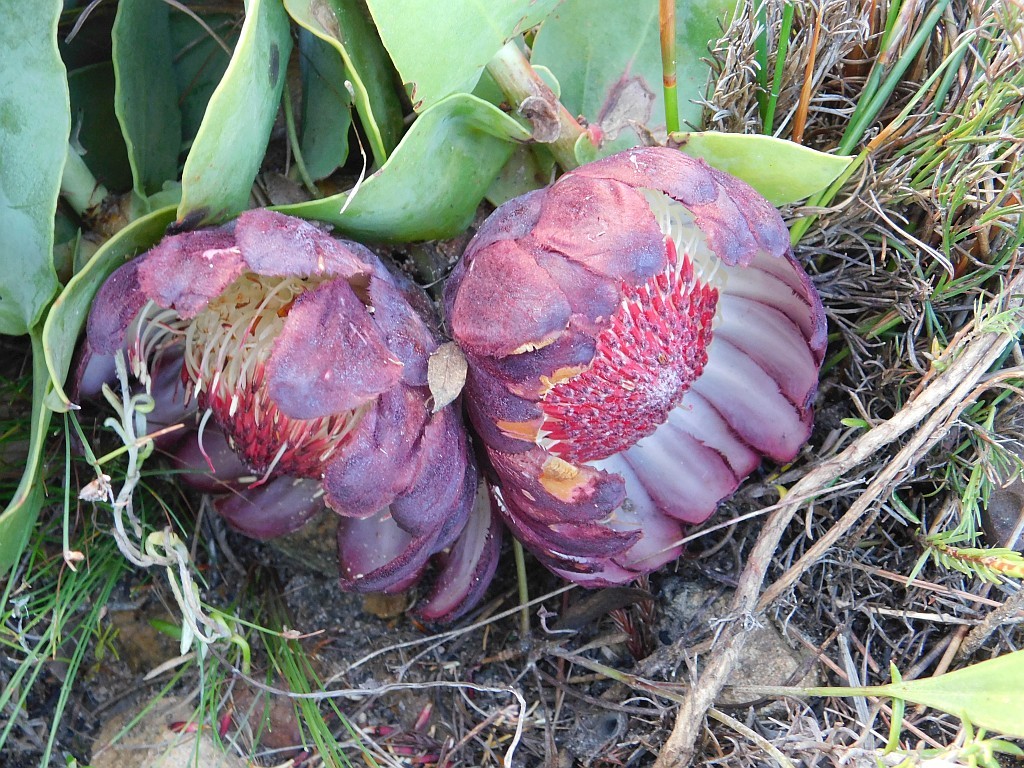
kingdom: Plantae
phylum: Tracheophyta
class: Magnoliopsida
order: Proteales
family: Proteaceae
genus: Protea
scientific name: Protea amplexicaulis
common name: Clasping-leaf sugarbush
